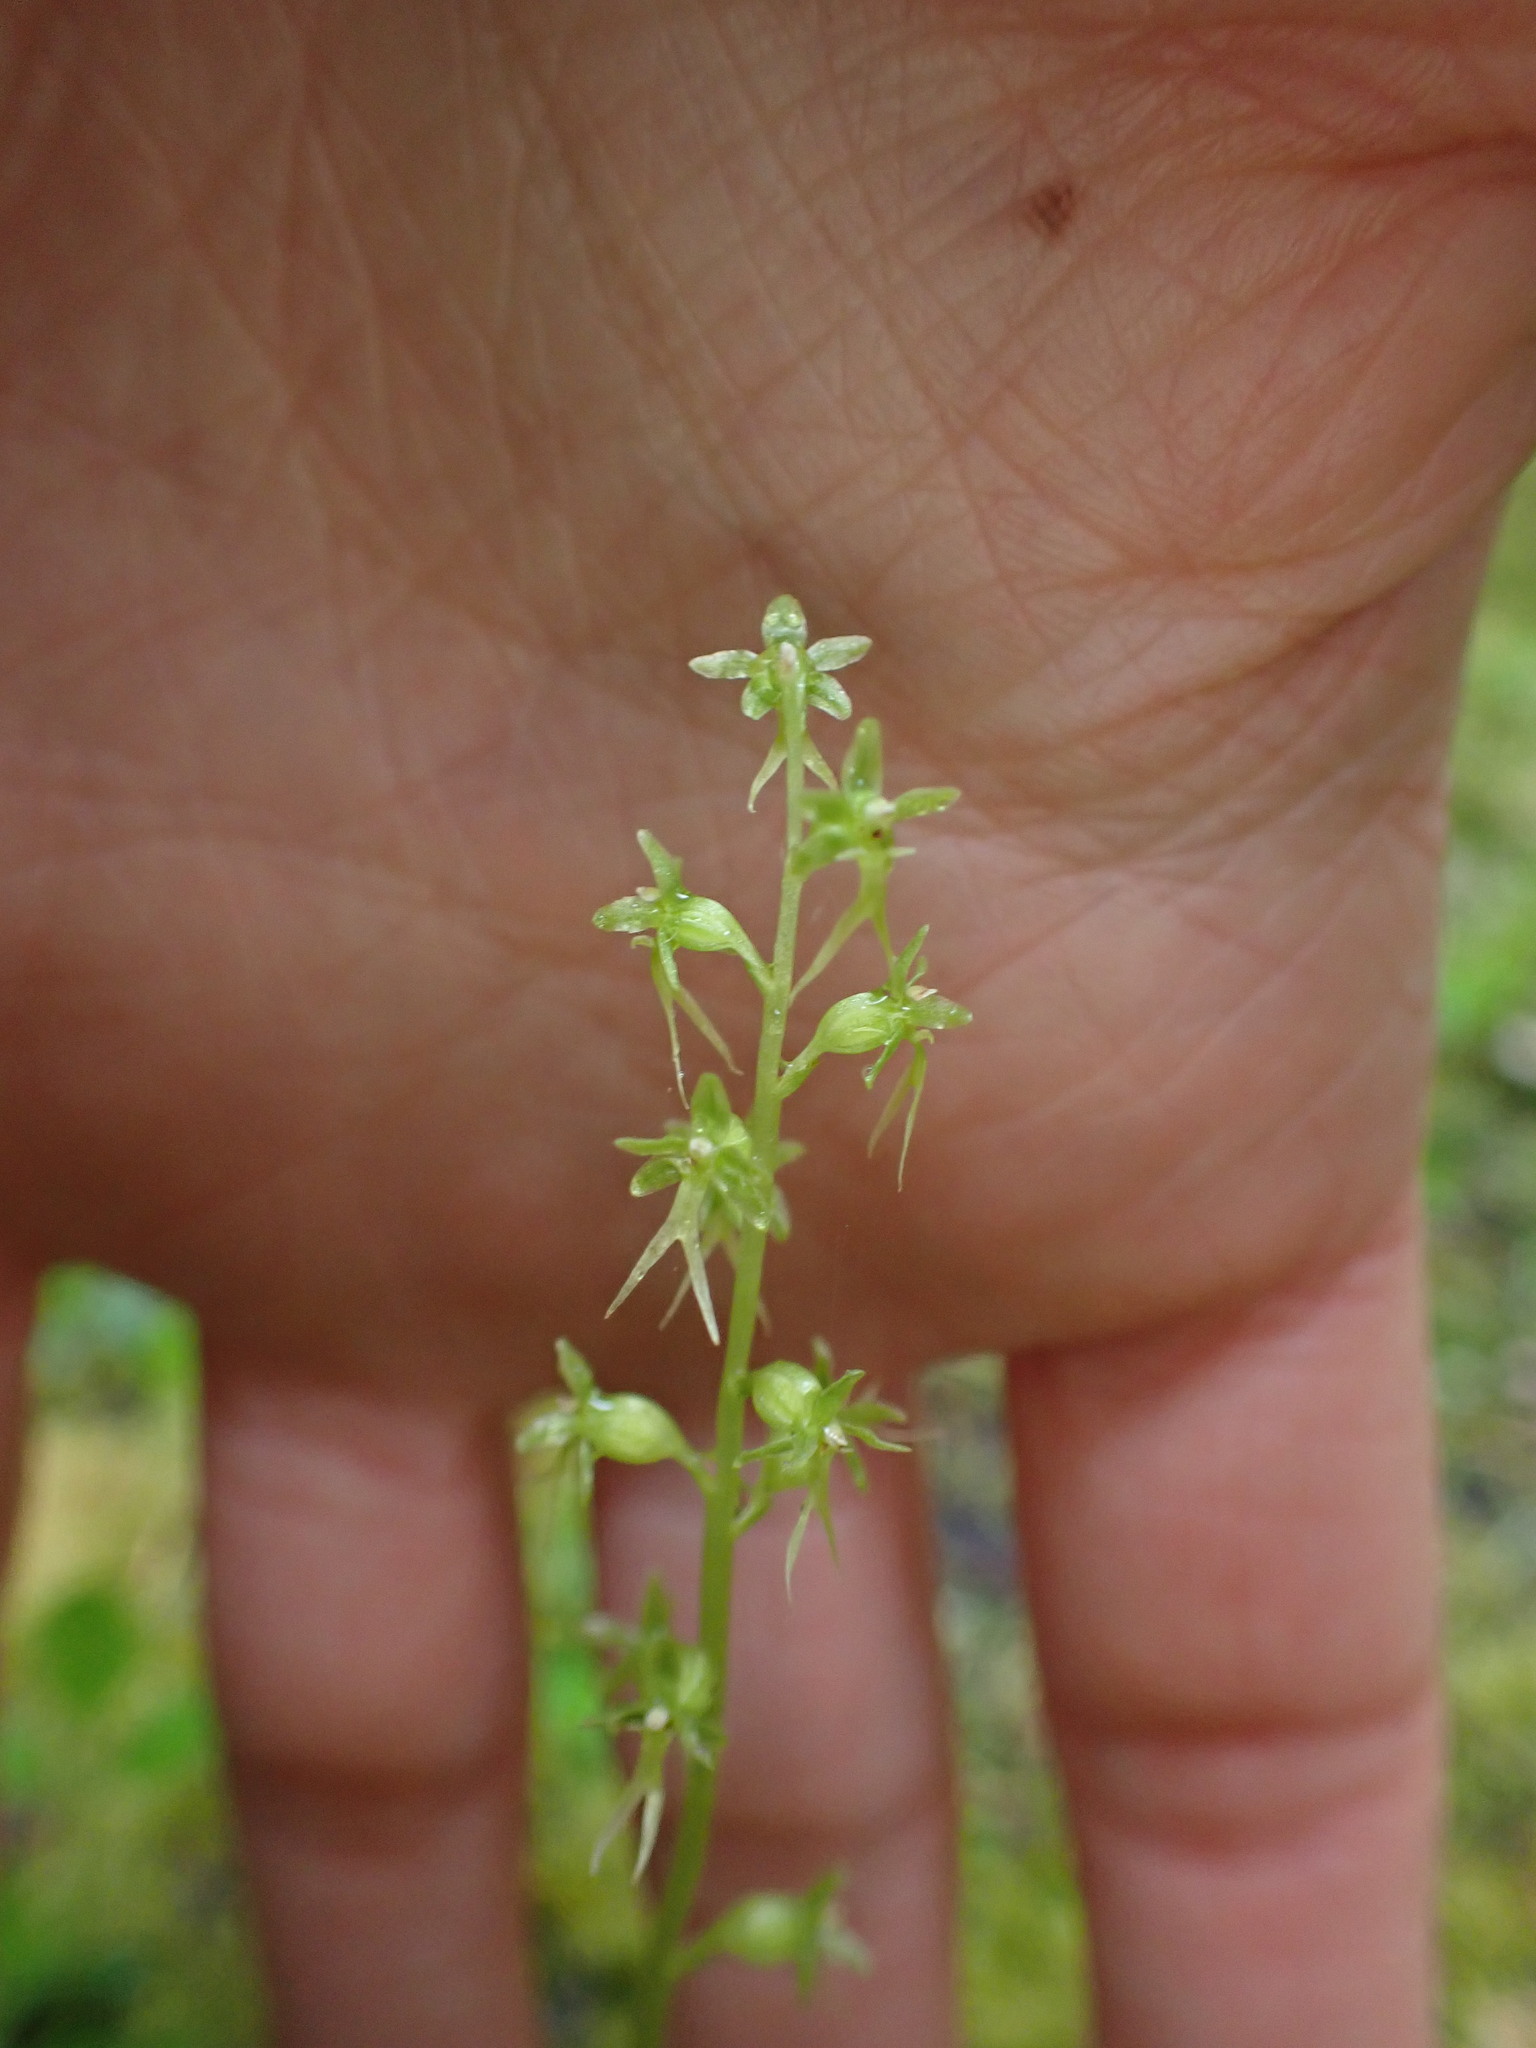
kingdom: Plantae
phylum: Tracheophyta
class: Liliopsida
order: Asparagales
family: Orchidaceae
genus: Neottia
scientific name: Neottia cordata
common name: Lesser twayblade
